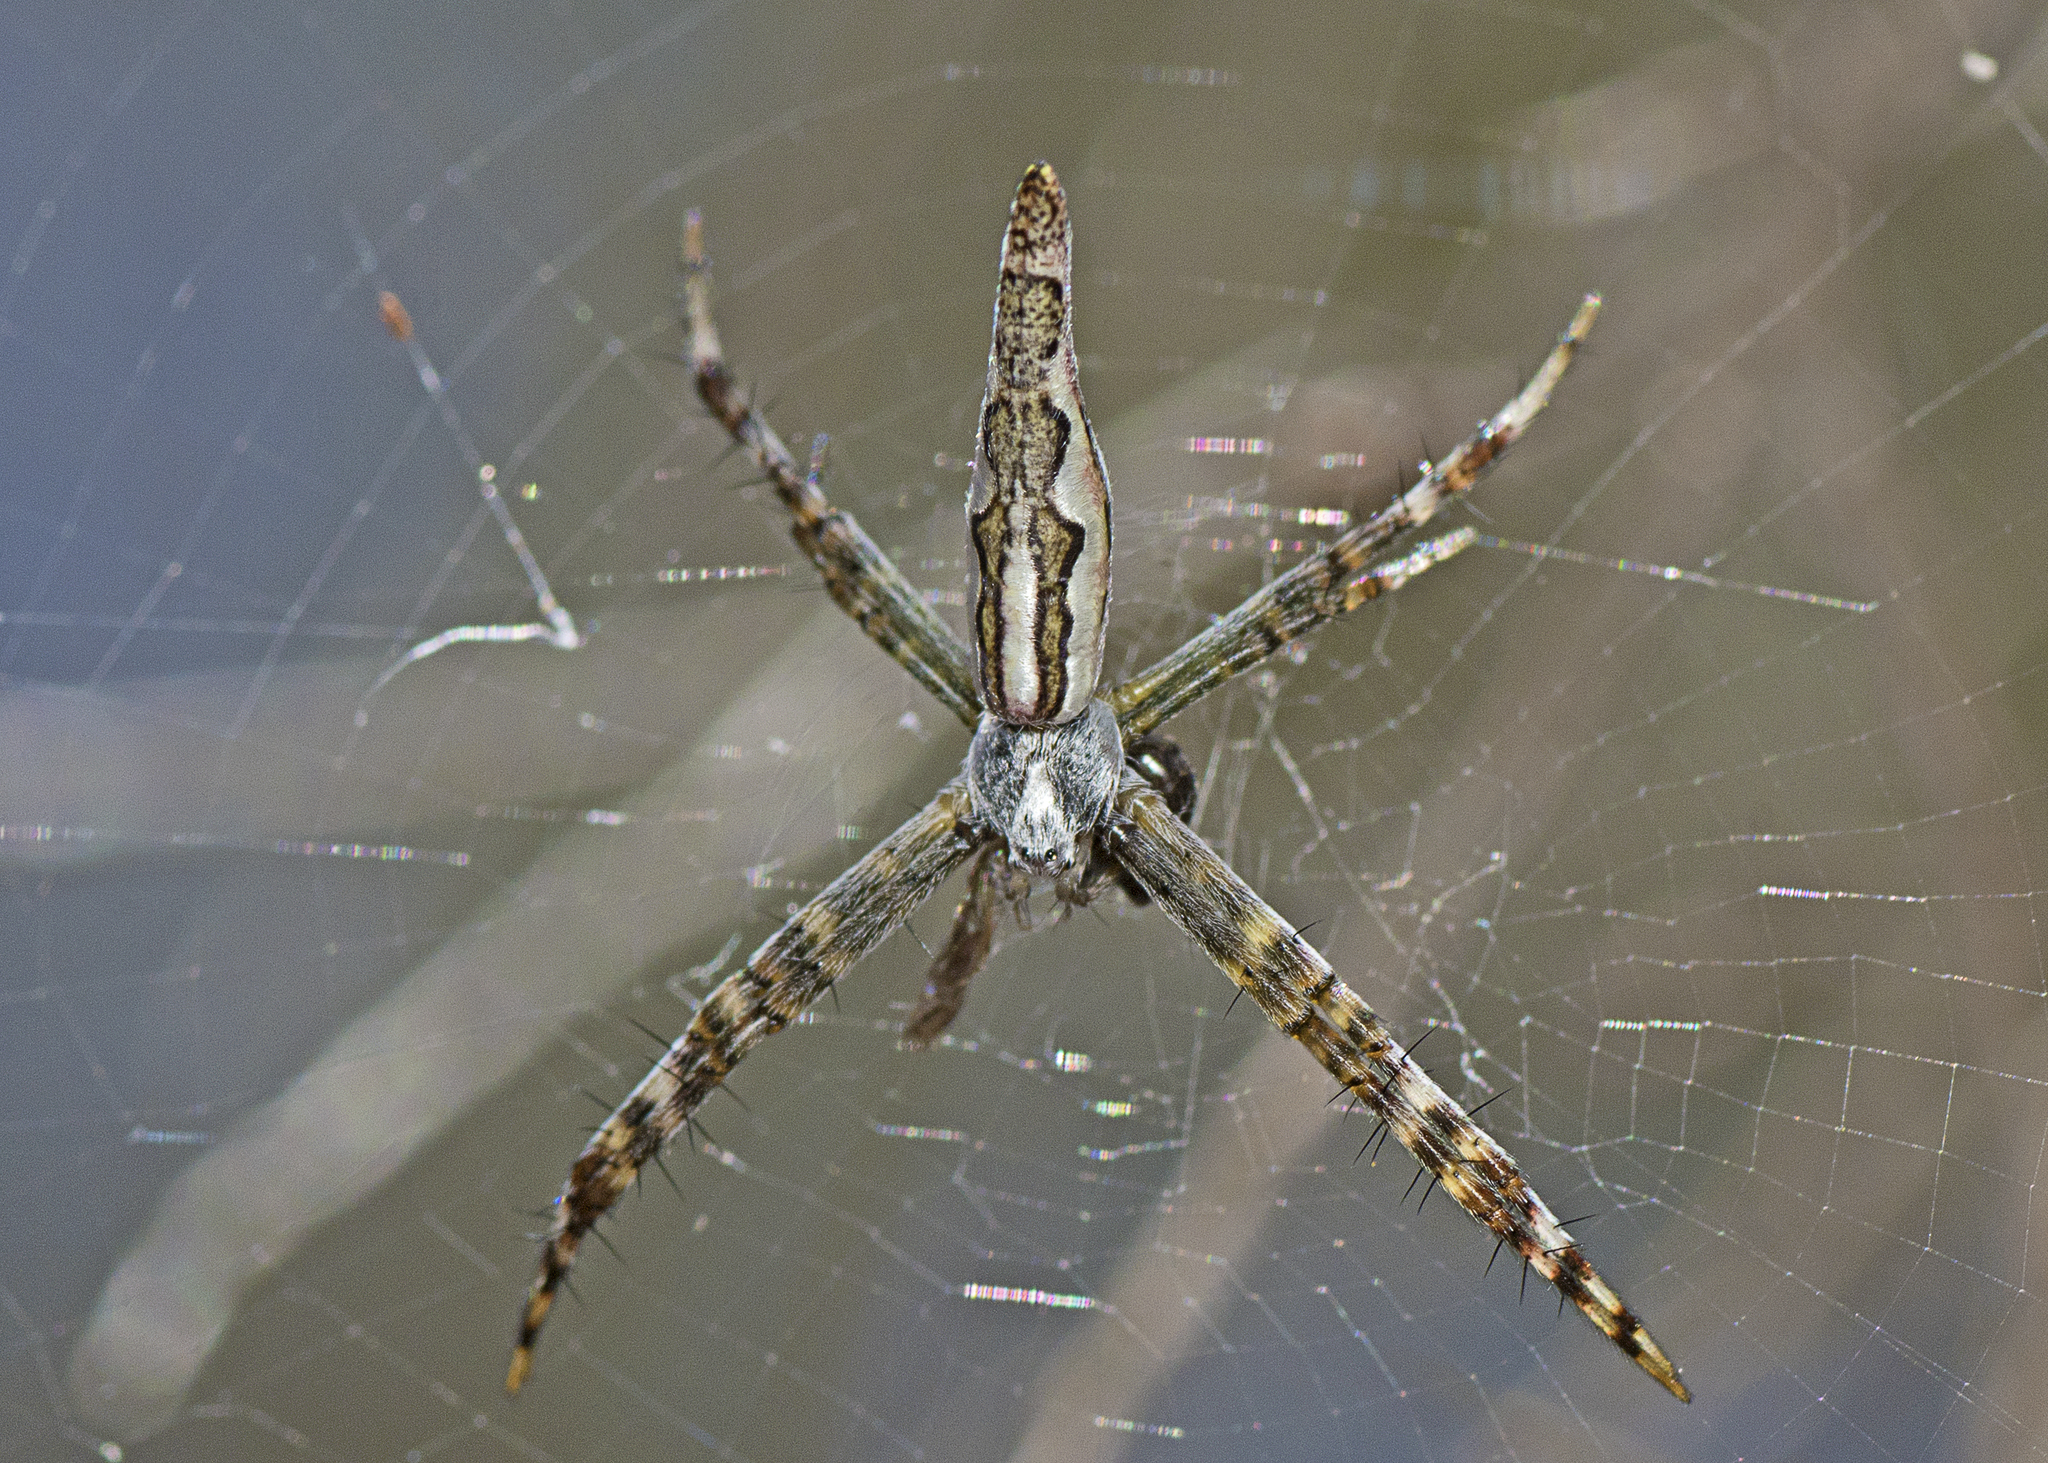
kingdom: Animalia
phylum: Arthropoda
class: Arachnida
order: Araneae
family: Araneidae
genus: Argiope
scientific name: Argiope probata
